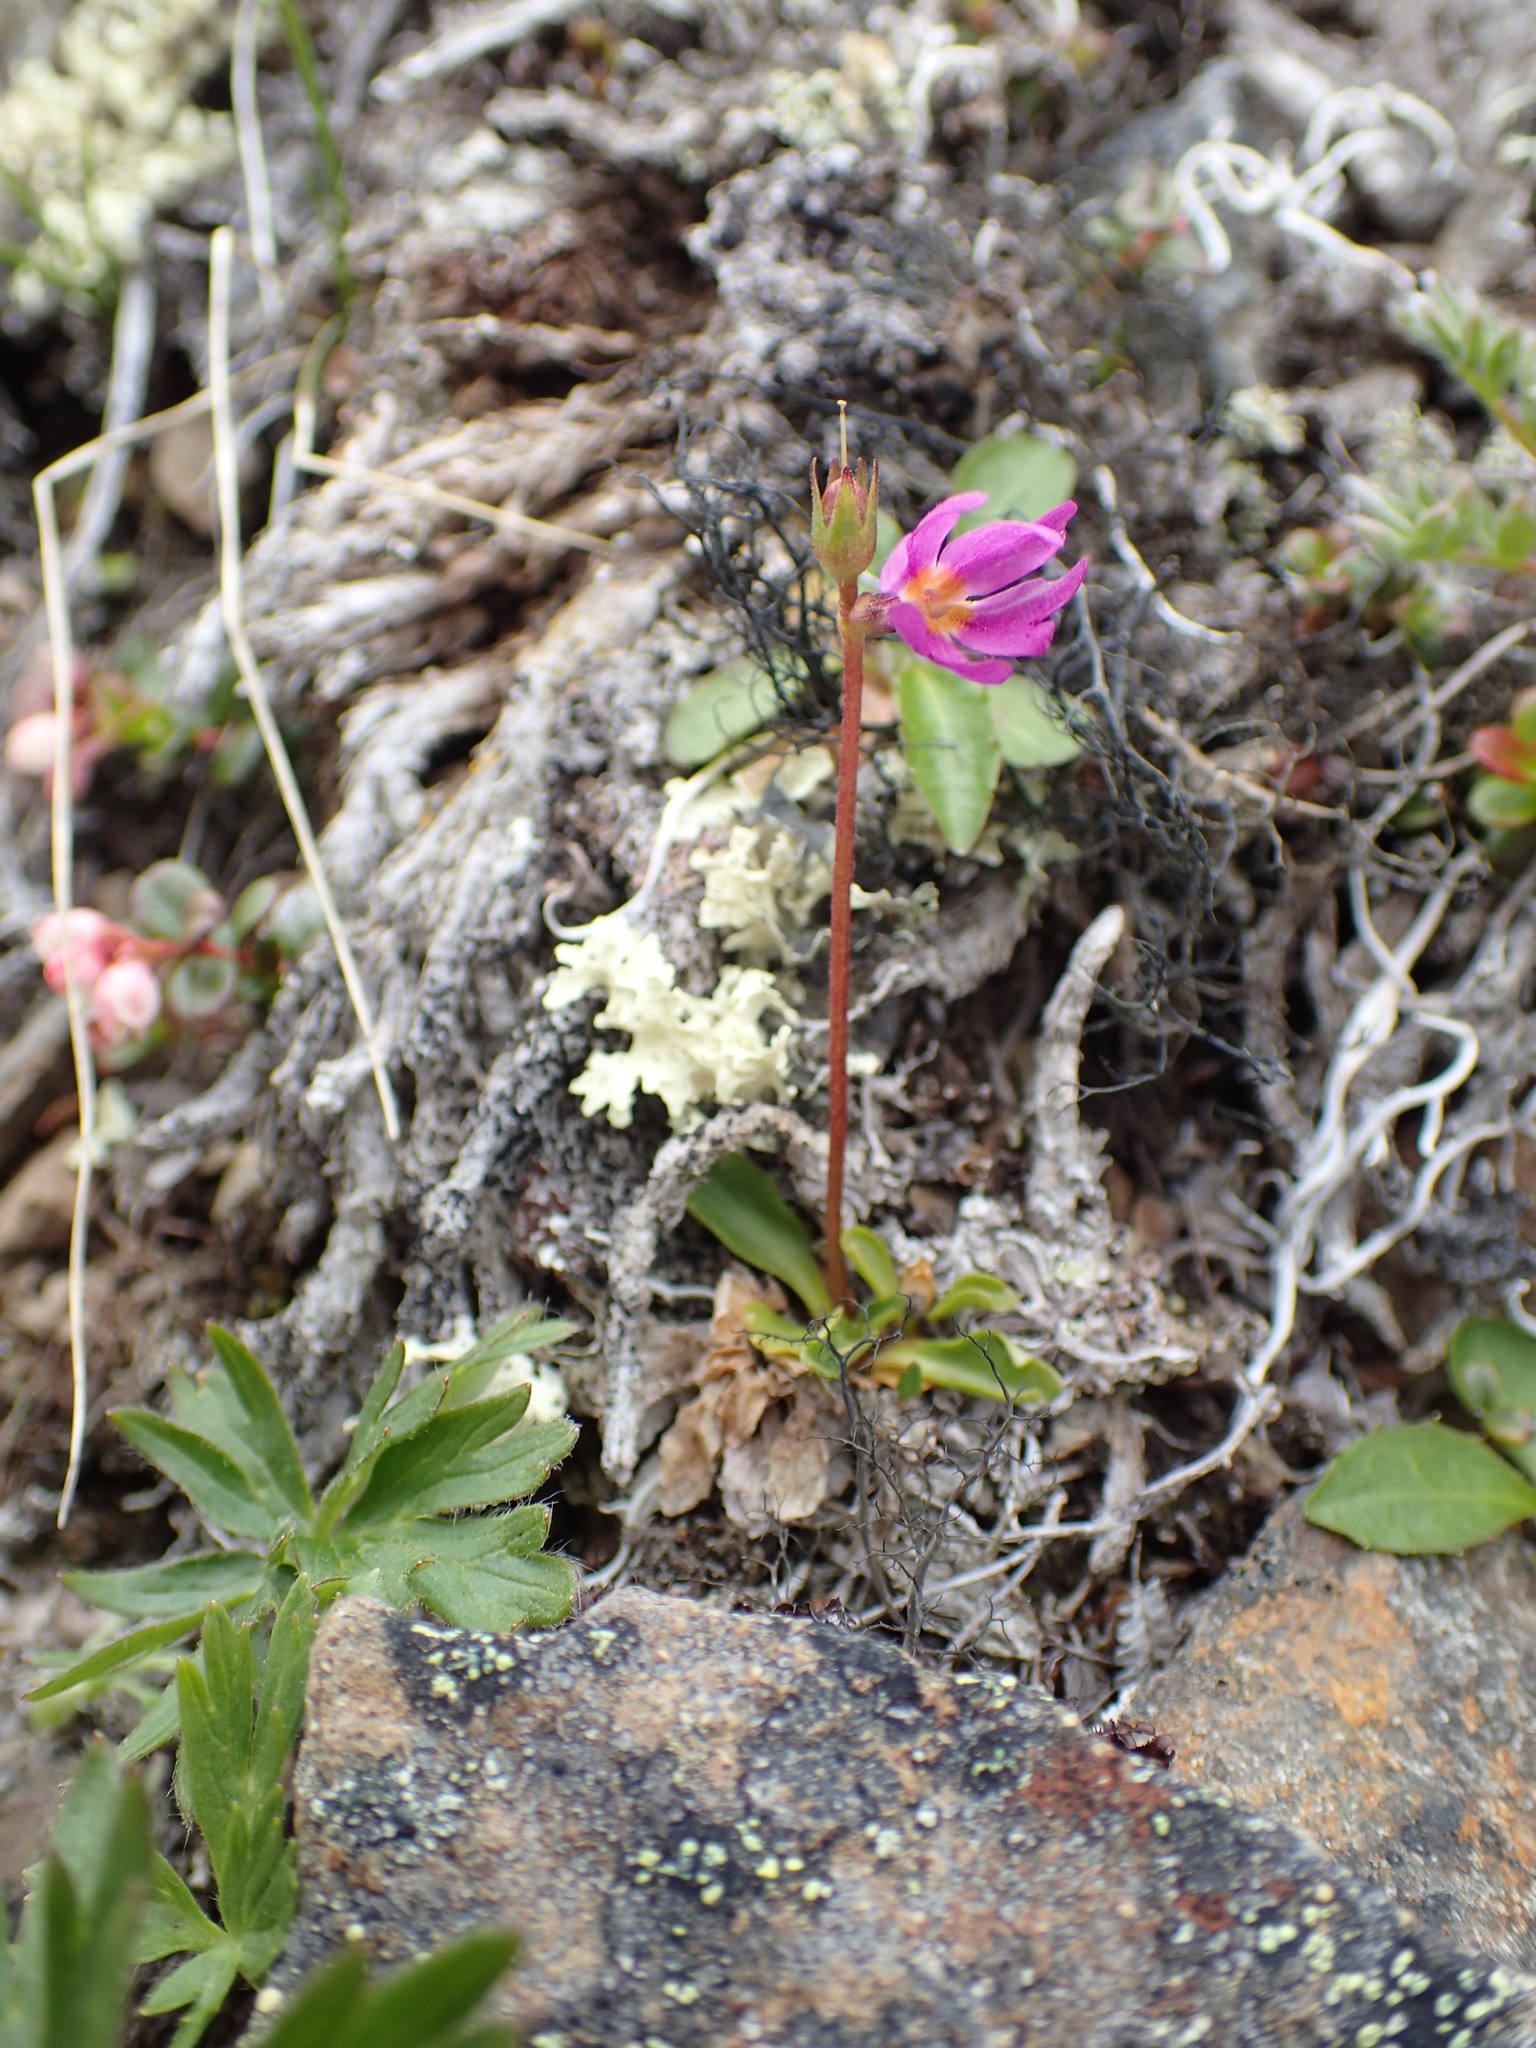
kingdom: Plantae
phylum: Tracheophyta
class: Magnoliopsida
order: Ericales
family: Primulaceae
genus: Primula
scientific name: Primula cuneifolia
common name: Wedge-leaved primrose
